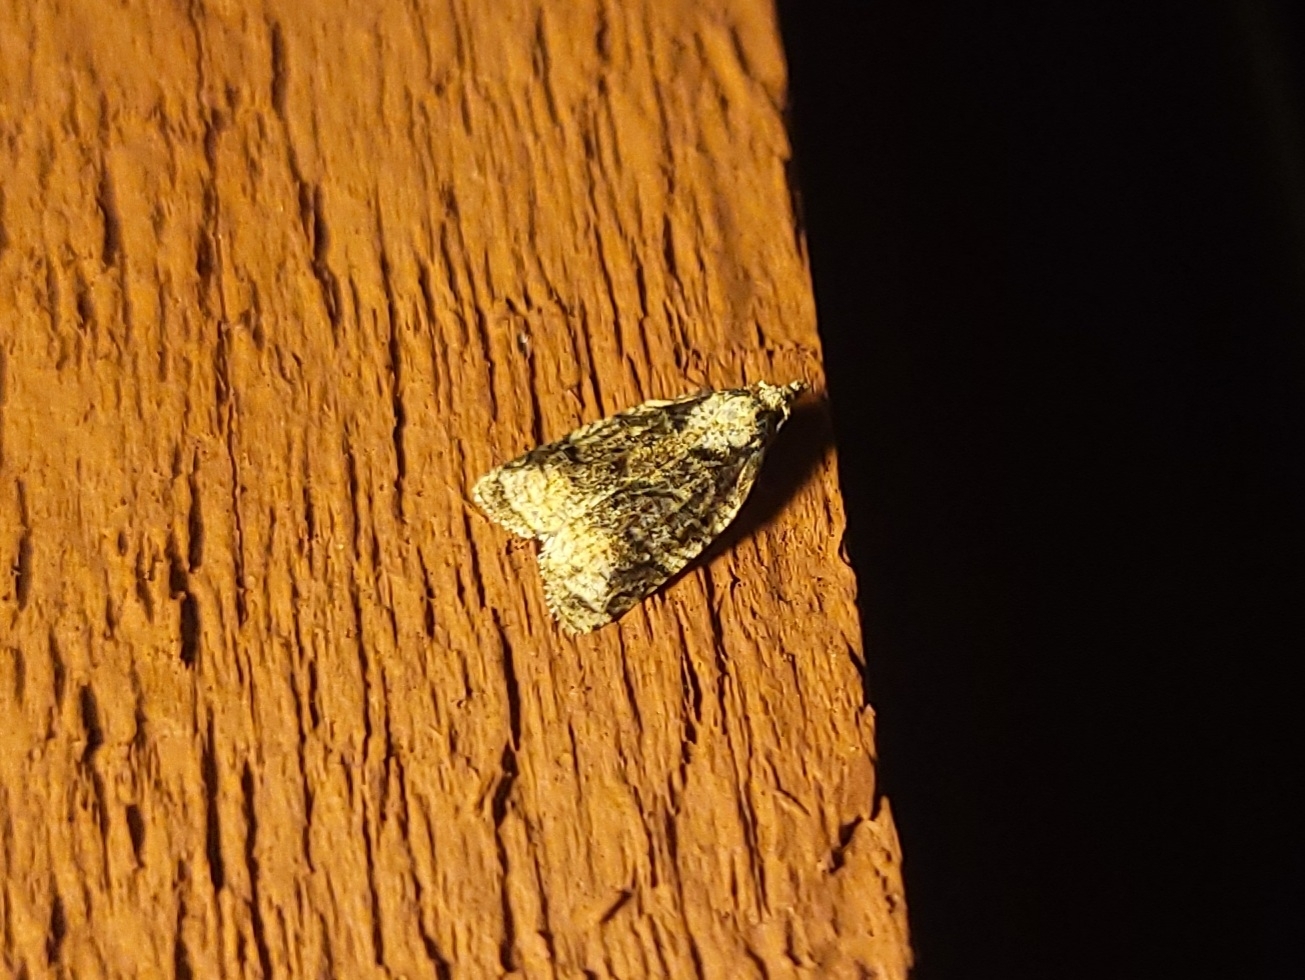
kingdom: Animalia
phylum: Arthropoda
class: Insecta
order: Lepidoptera
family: Tortricidae
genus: Platynota
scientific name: Platynota exasperatana
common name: Exasperating platynota moth
